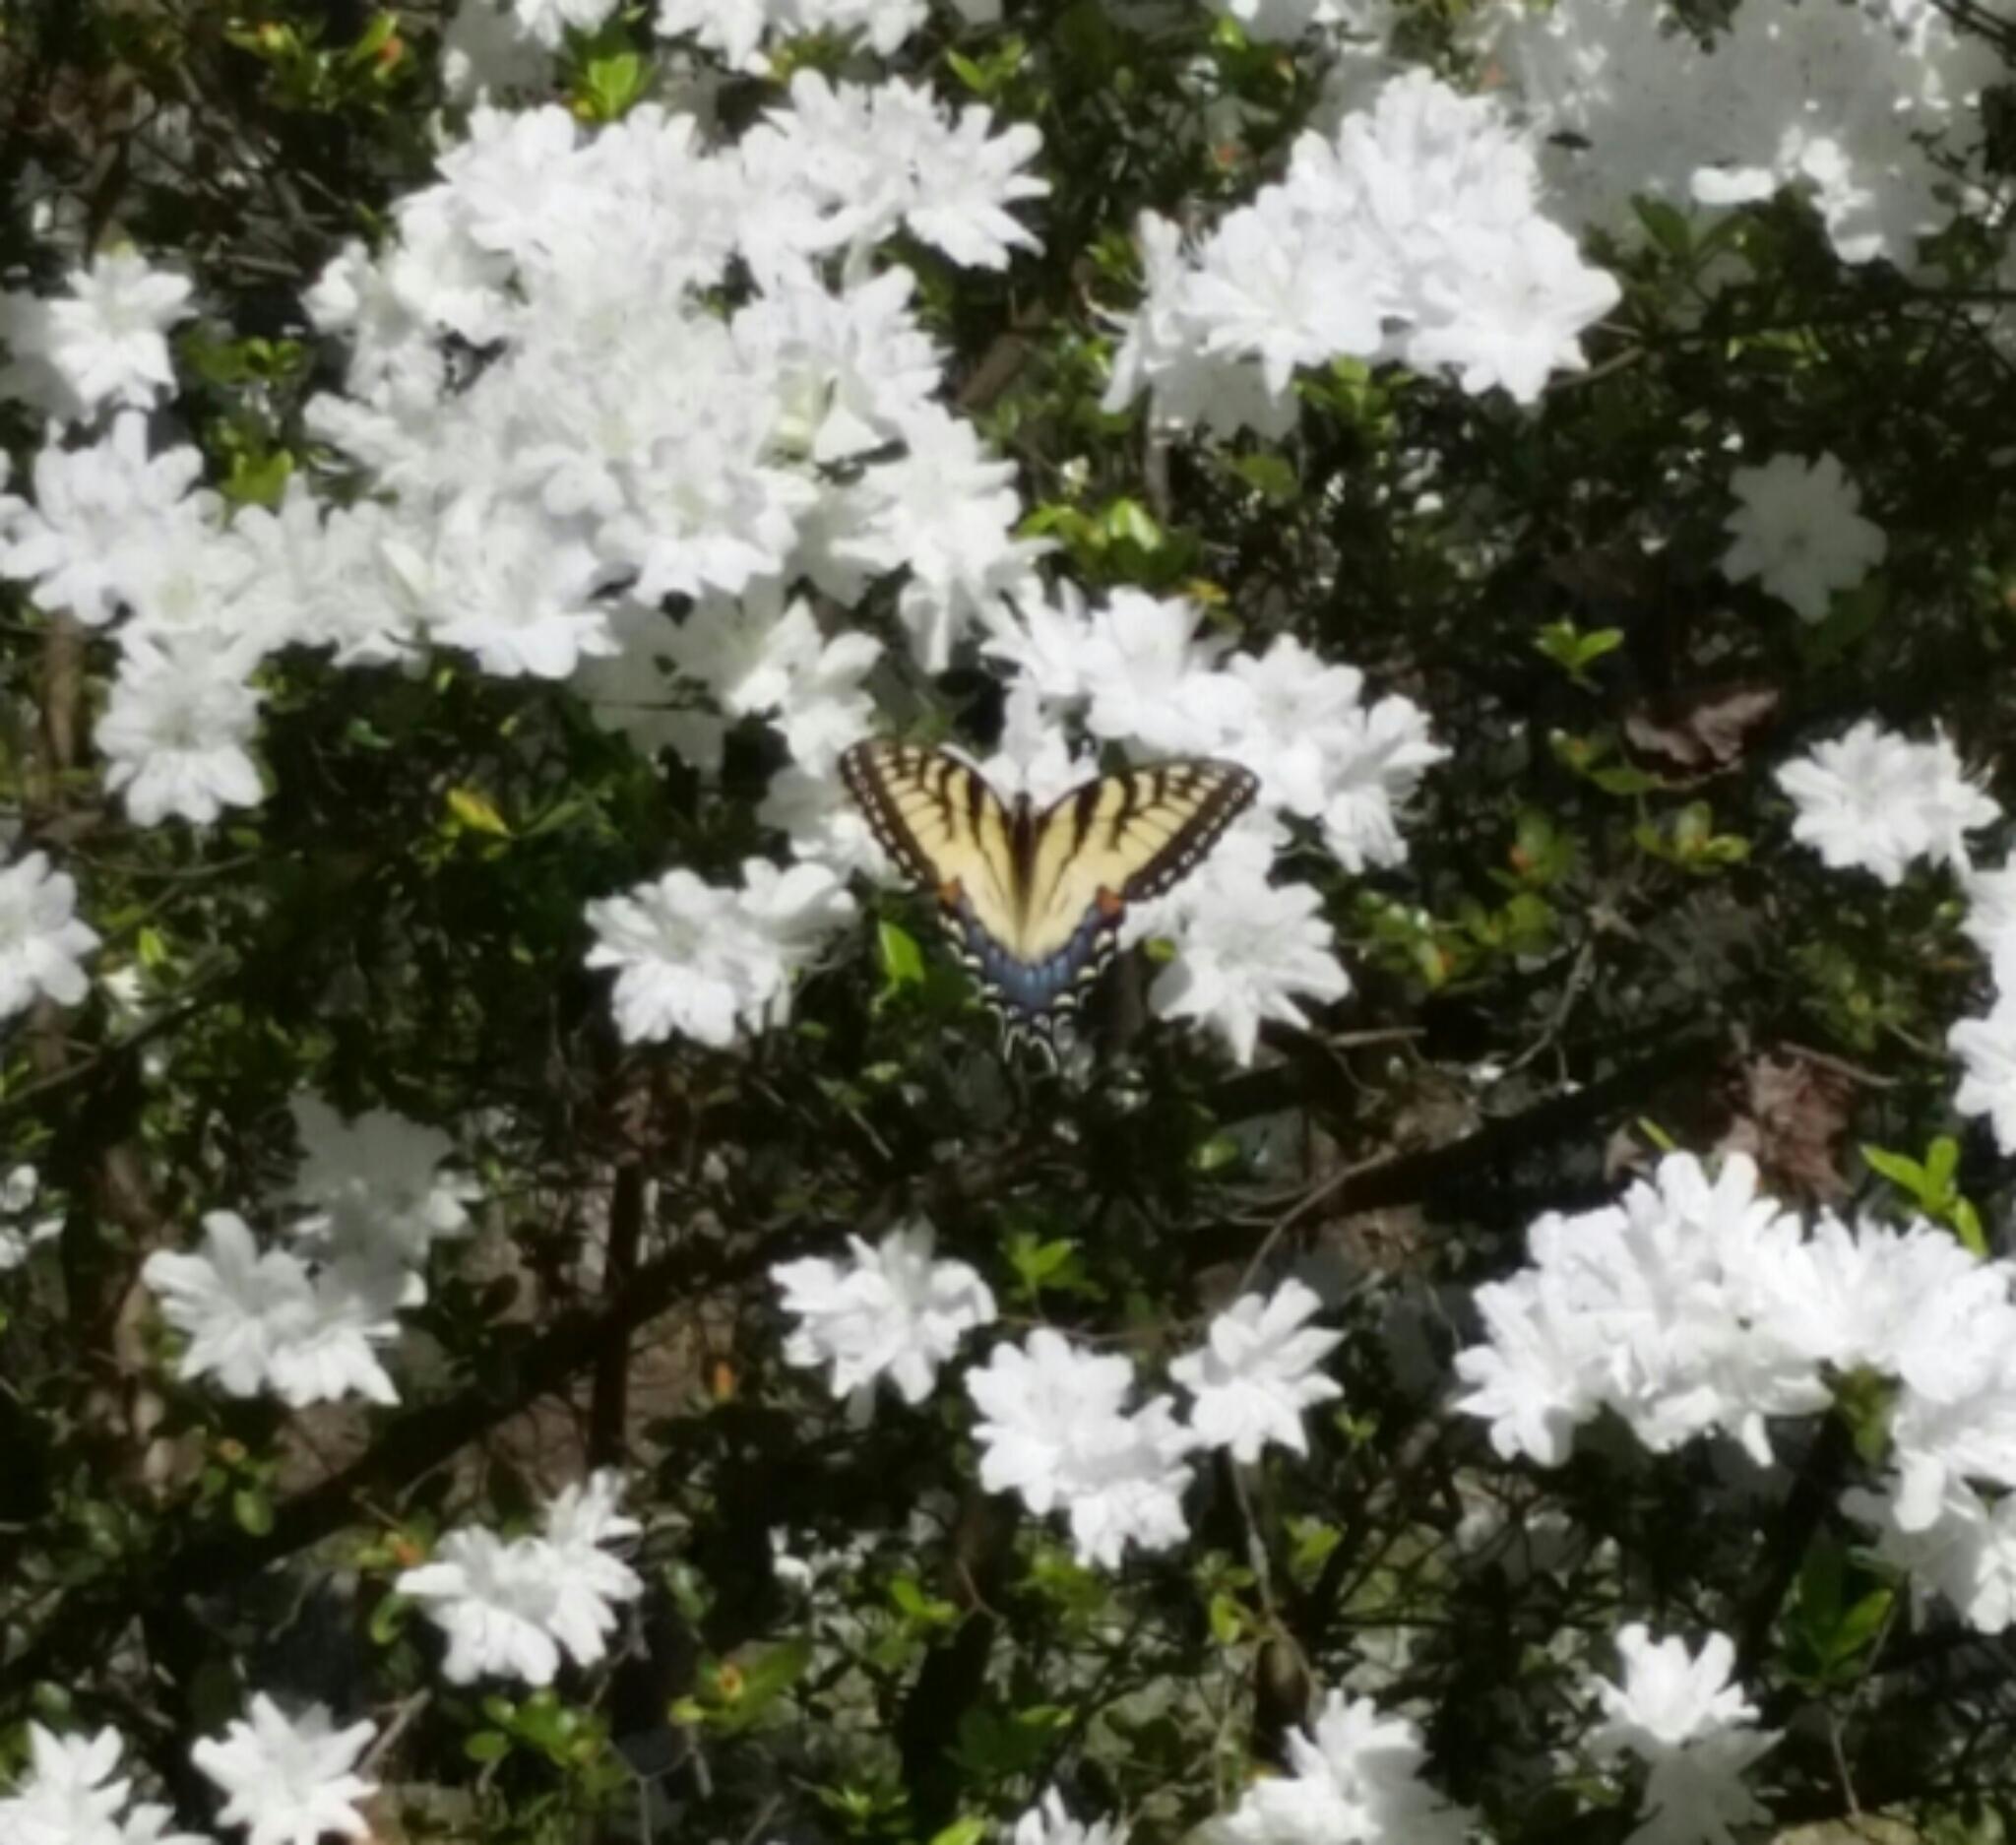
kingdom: Animalia
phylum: Arthropoda
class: Insecta
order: Lepidoptera
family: Papilionidae
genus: Papilio
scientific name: Papilio glaucus
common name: Tiger swallowtail
